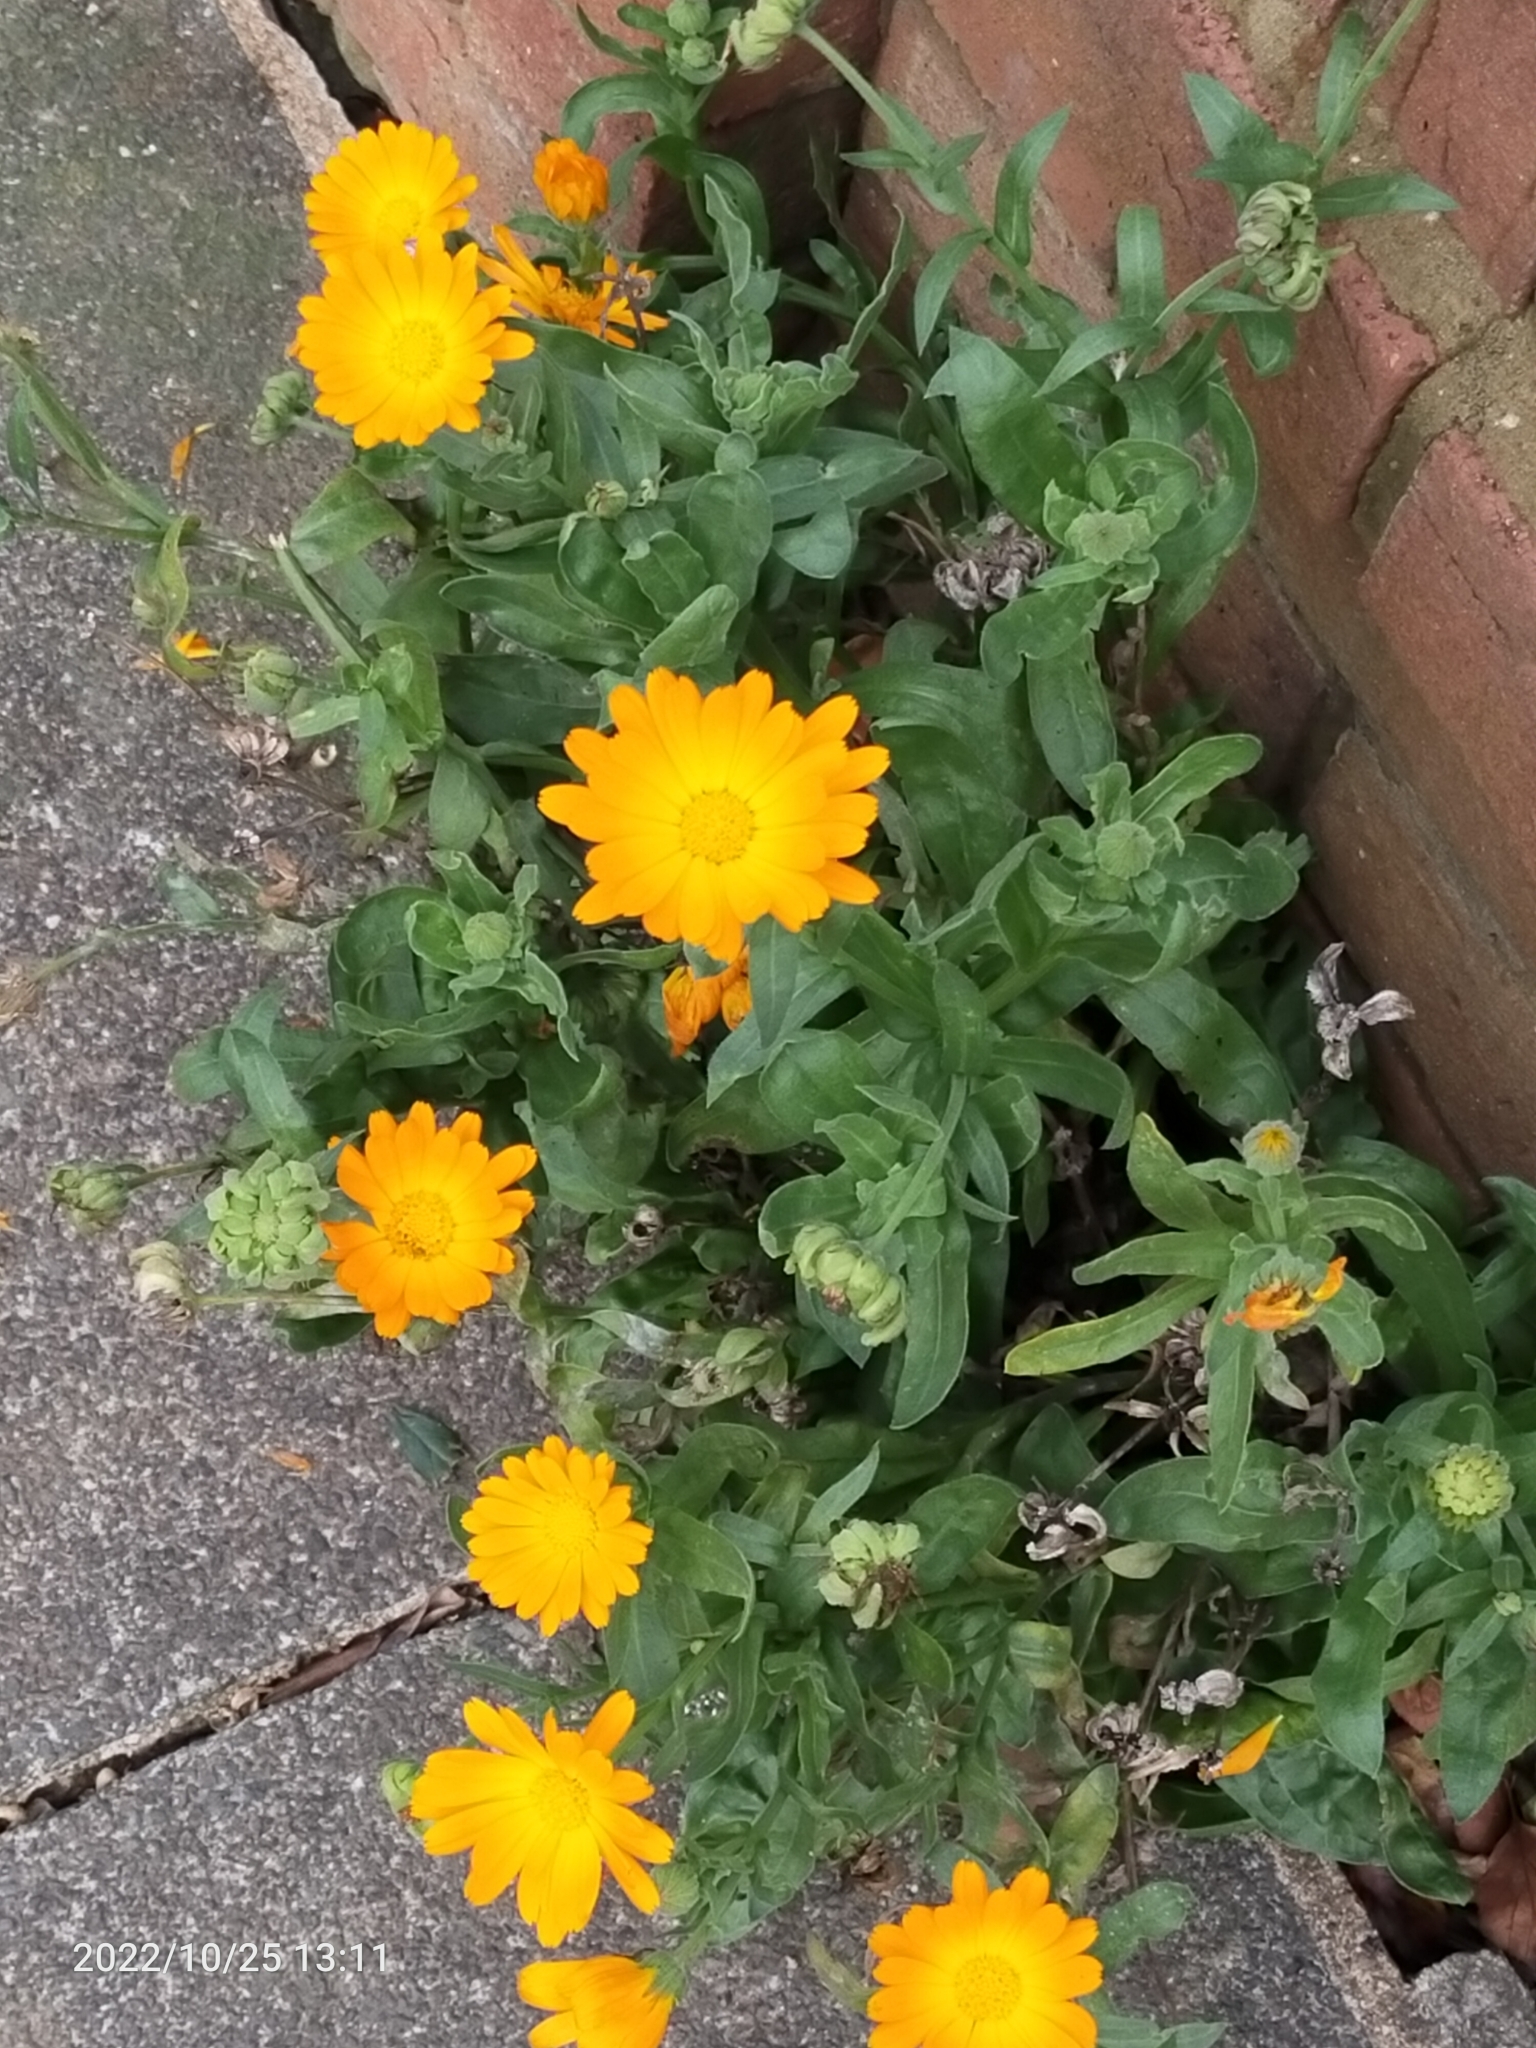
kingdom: Plantae
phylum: Tracheophyta
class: Magnoliopsida
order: Asterales
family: Asteraceae
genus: Calendula
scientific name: Calendula officinalis
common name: Pot marigold
